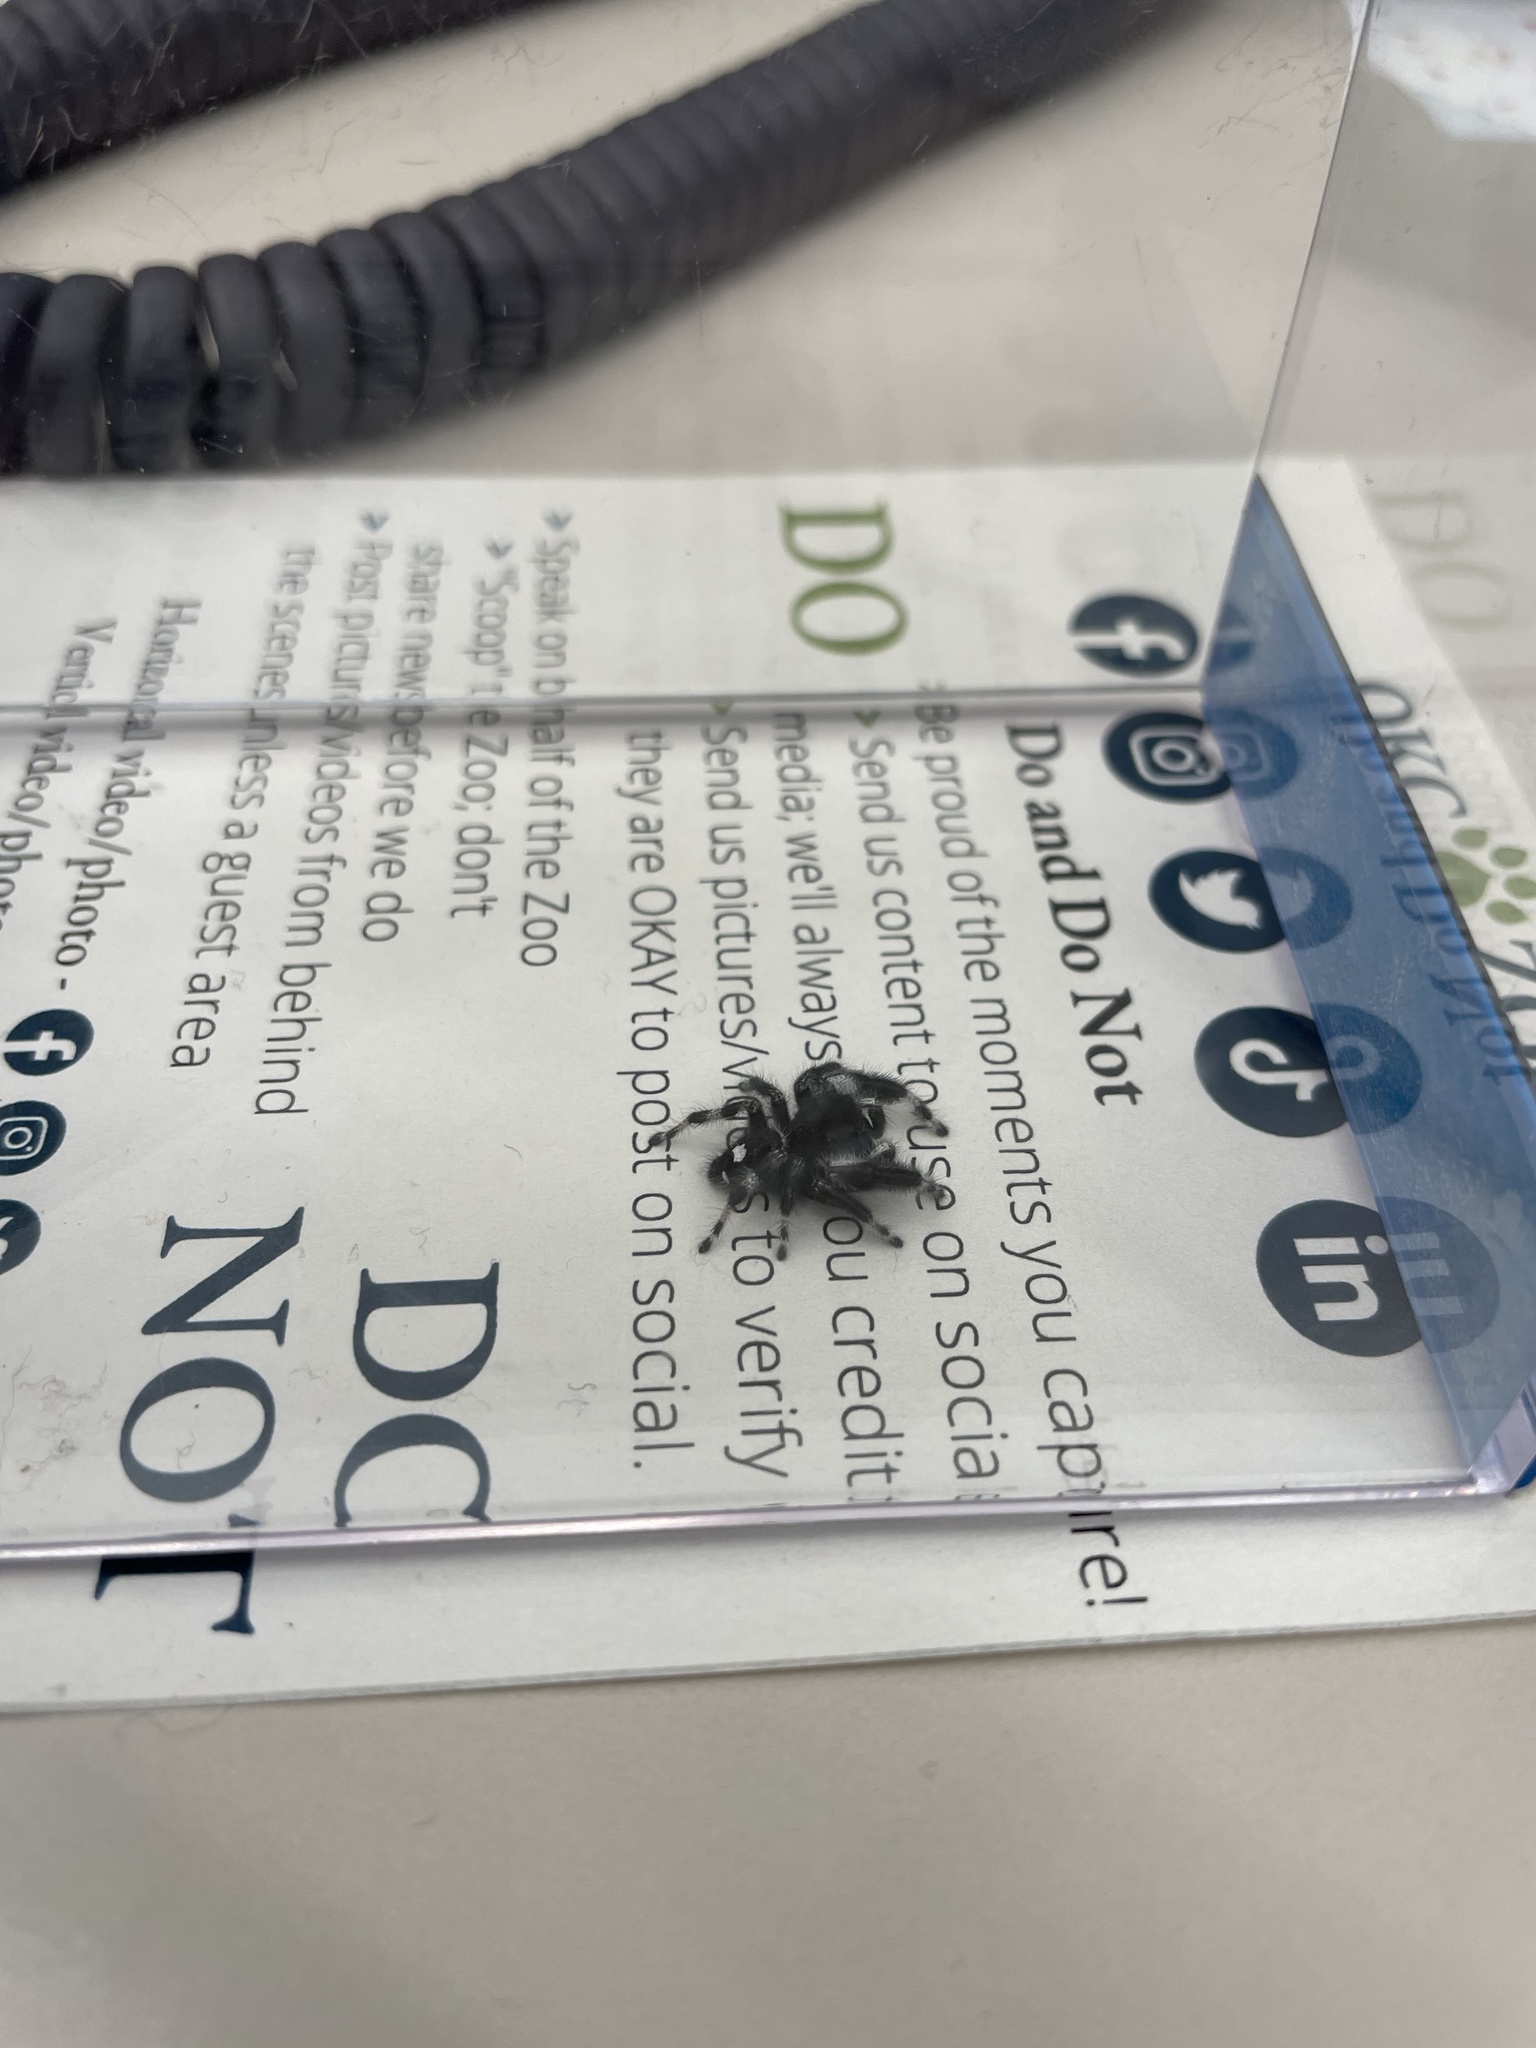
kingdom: Animalia
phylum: Arthropoda
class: Arachnida
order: Araneae
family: Salticidae
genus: Phidippus
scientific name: Phidippus audax
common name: Bold jumper
